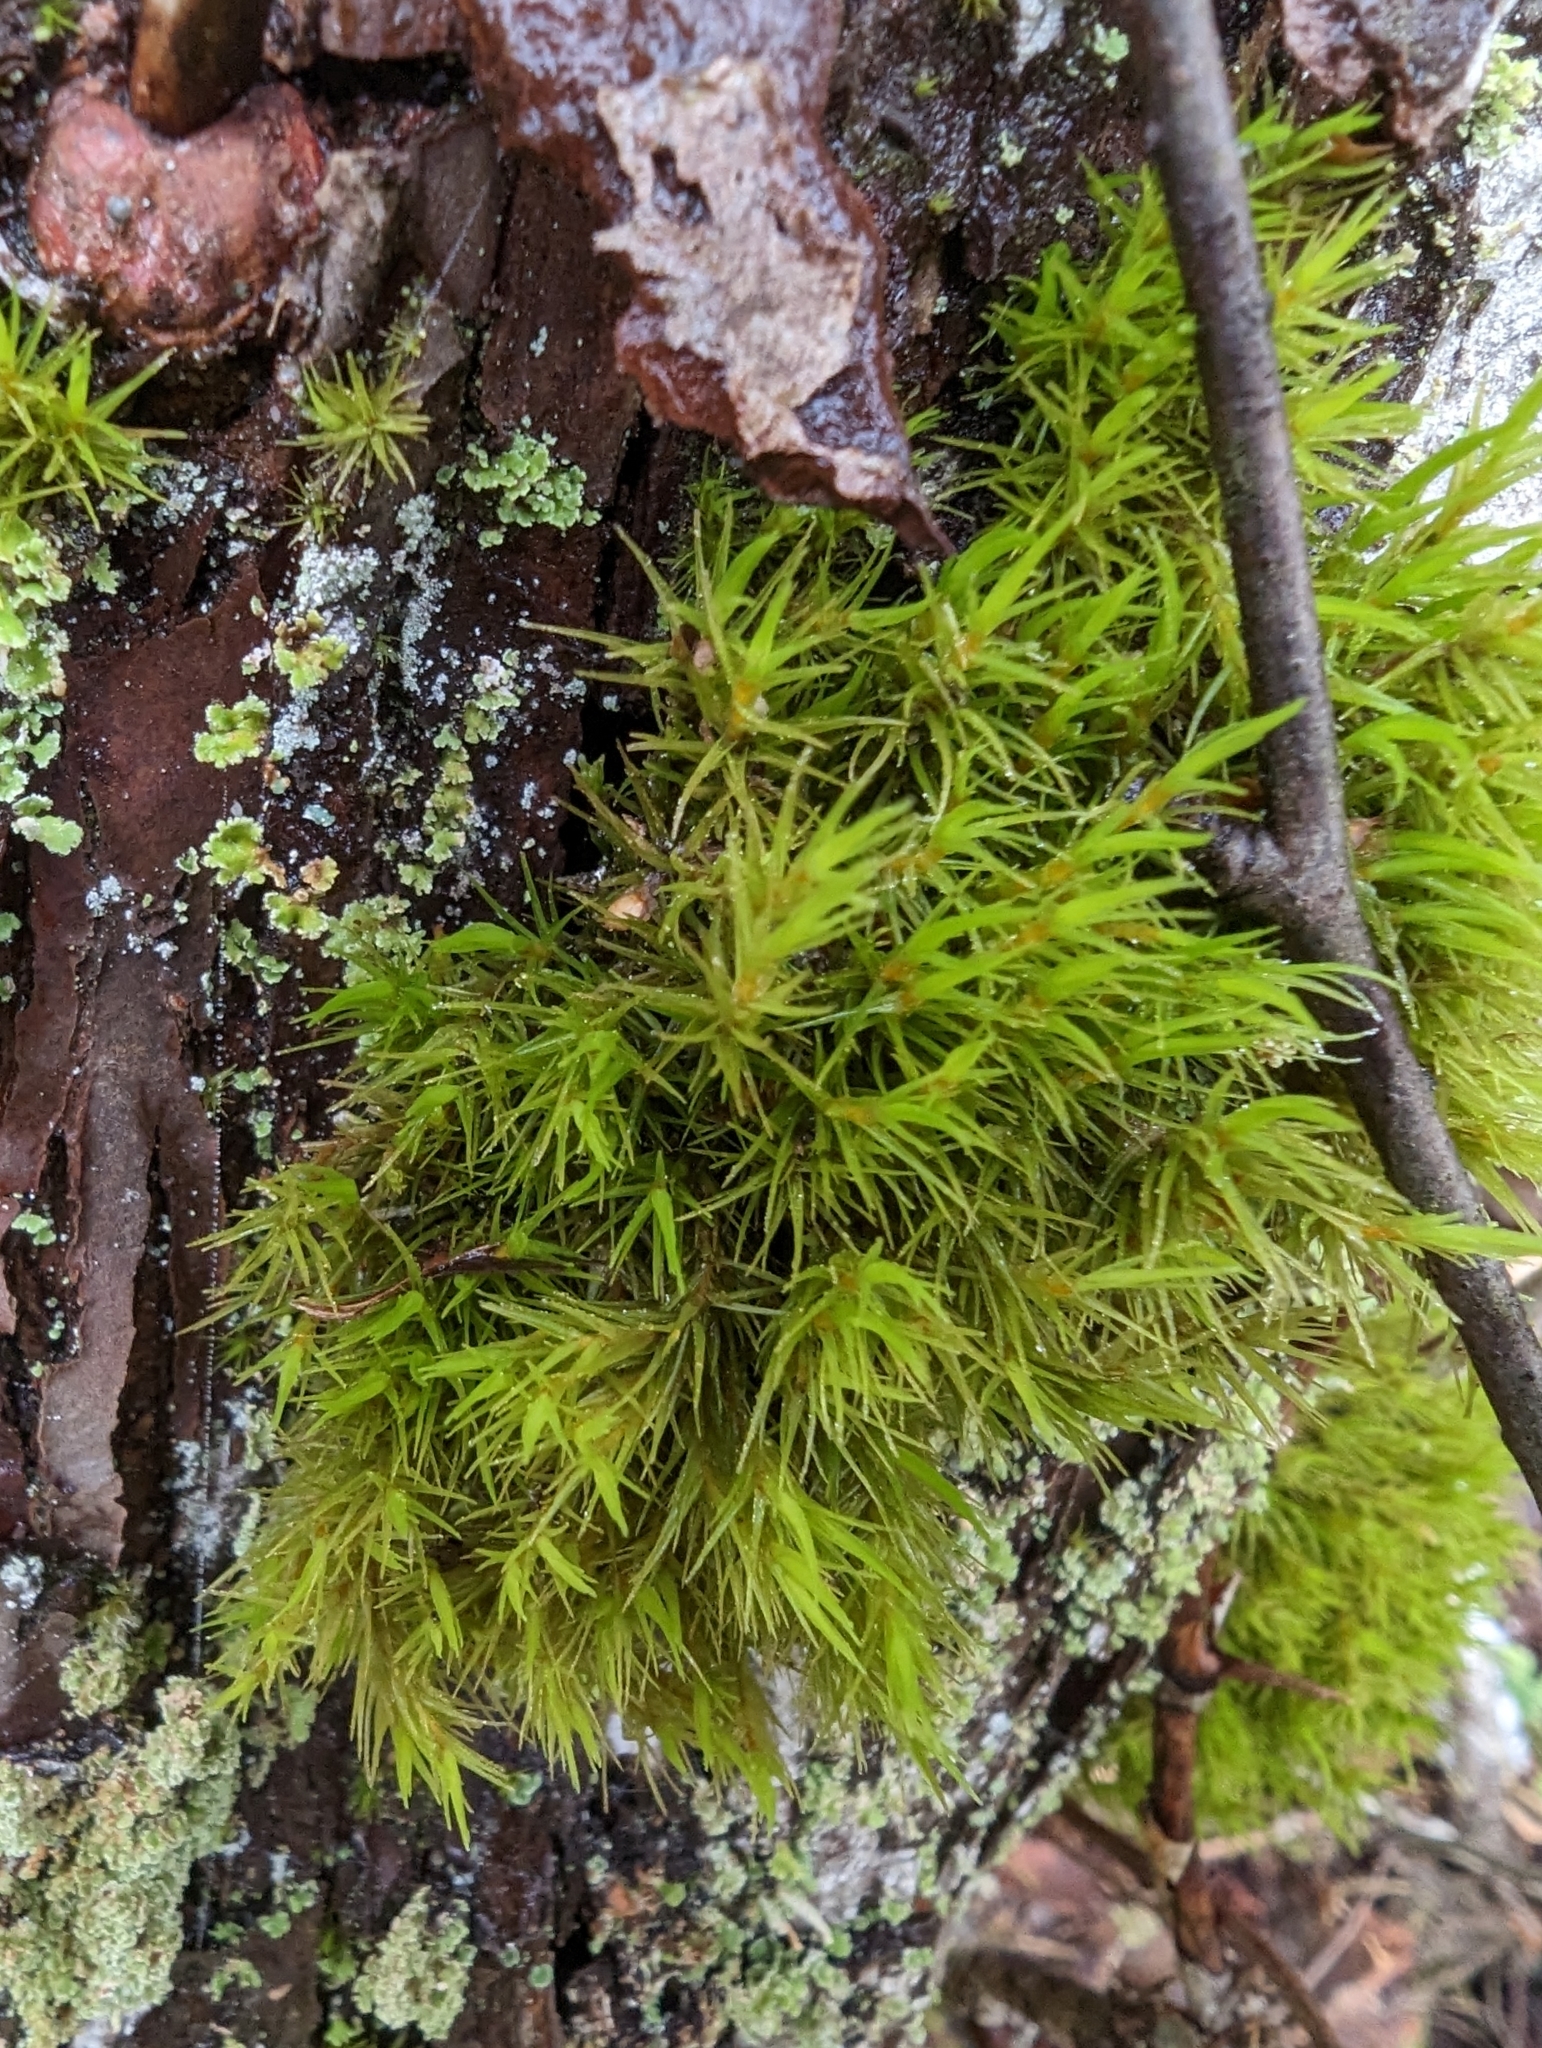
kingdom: Plantae
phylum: Bryophyta
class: Bryopsida
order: Dicranales
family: Dicranaceae
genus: Orthodicranum
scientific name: Orthodicranum tauricum
